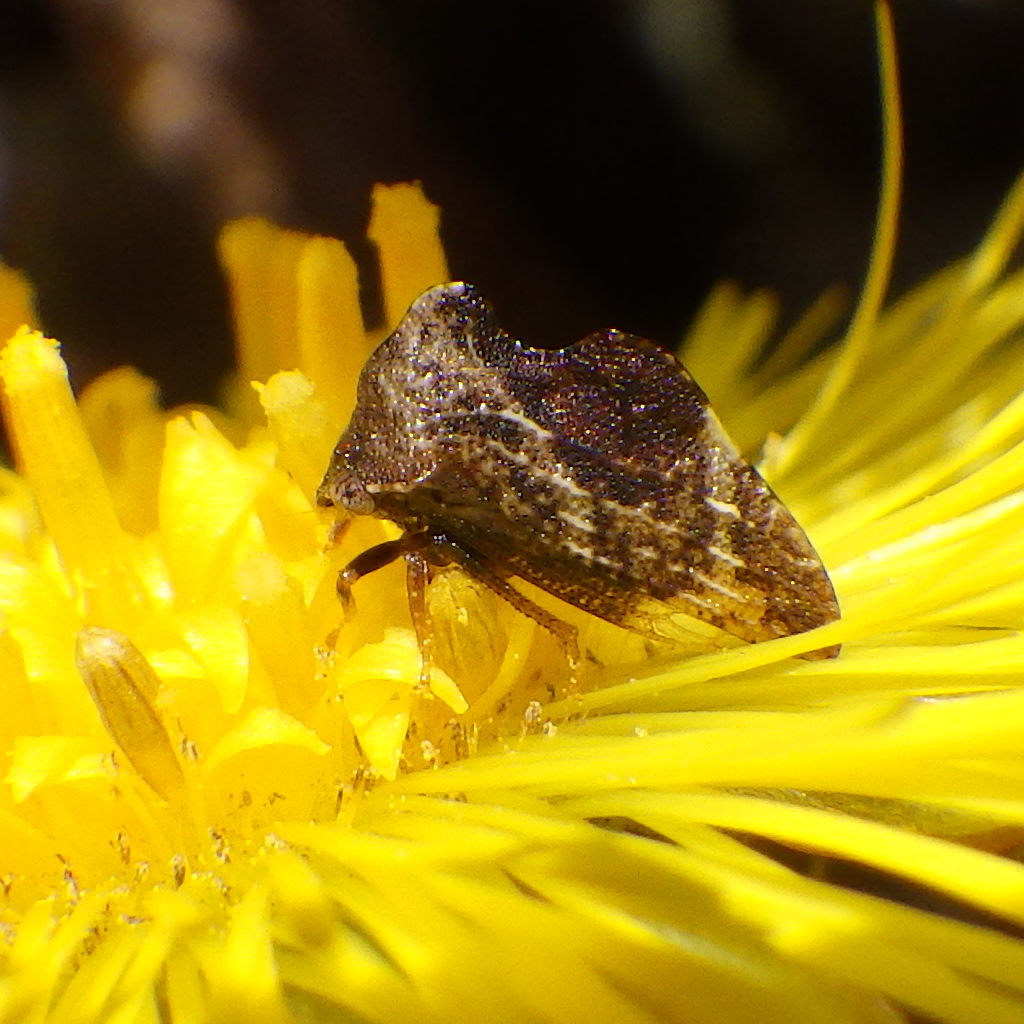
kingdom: Animalia
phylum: Arthropoda
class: Insecta
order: Hemiptera
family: Membracidae
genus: Publilia
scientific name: Publilia concava
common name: Aster treehopper
